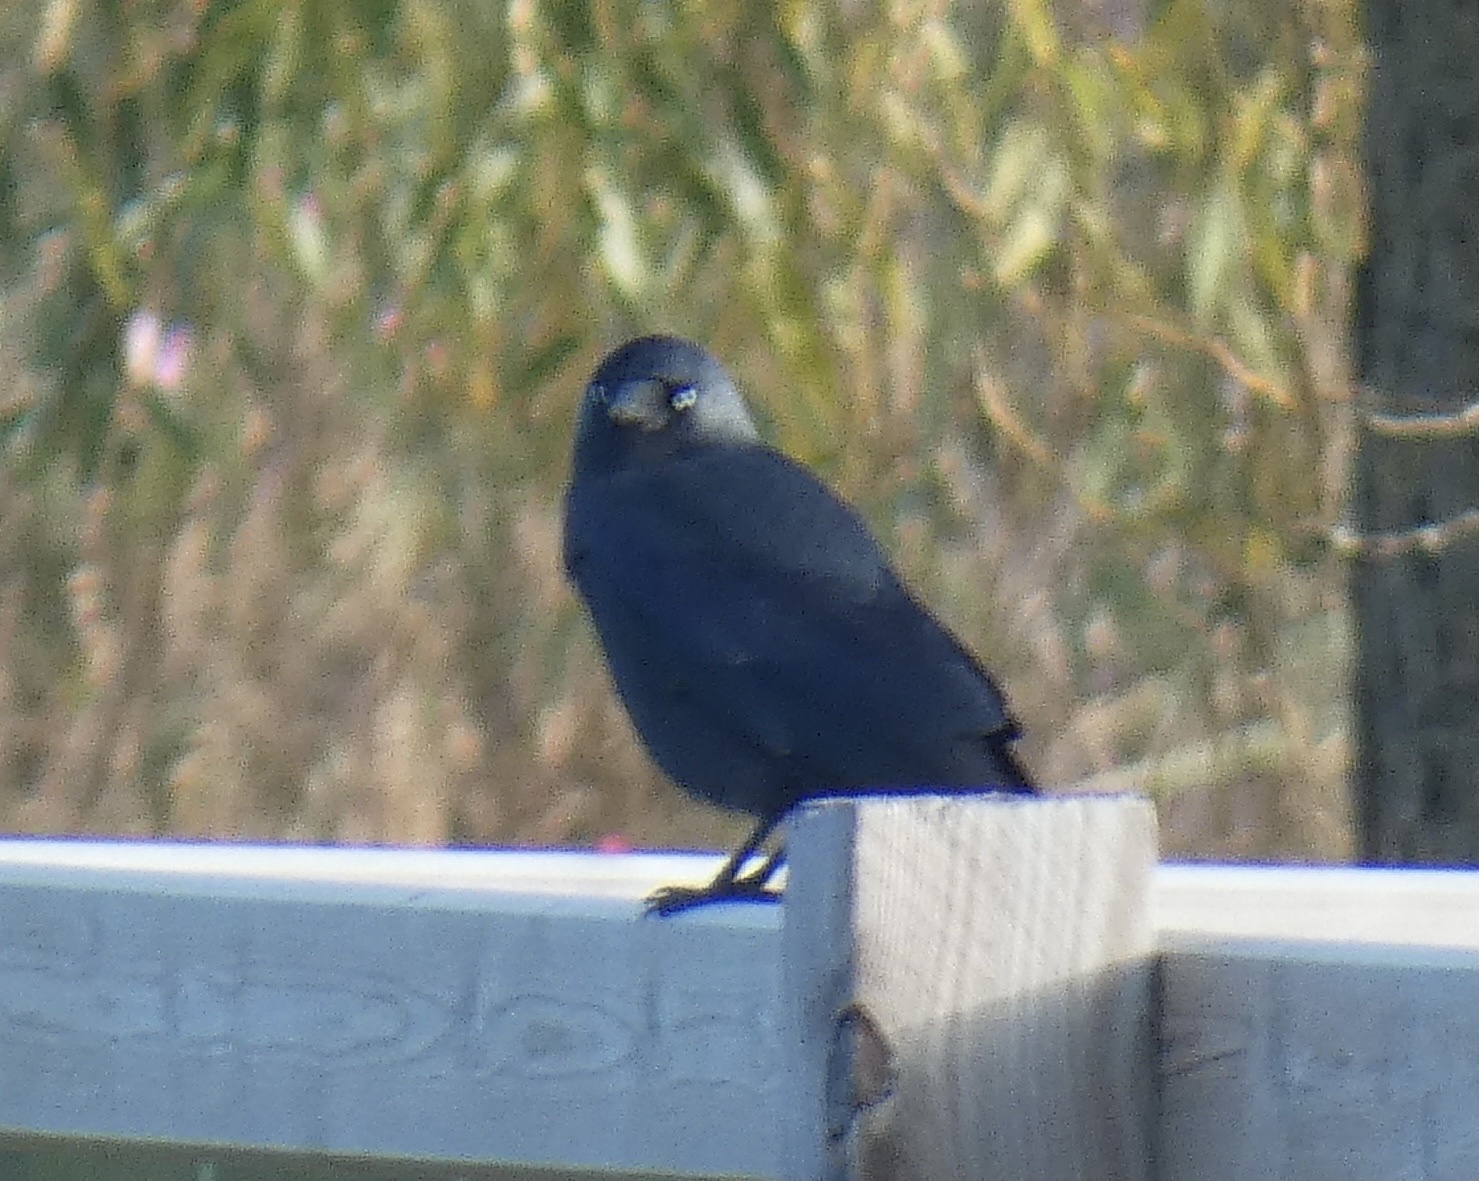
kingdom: Animalia
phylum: Chordata
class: Aves
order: Passeriformes
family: Corvidae
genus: Coloeus
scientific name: Coloeus monedula
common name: Western jackdaw
